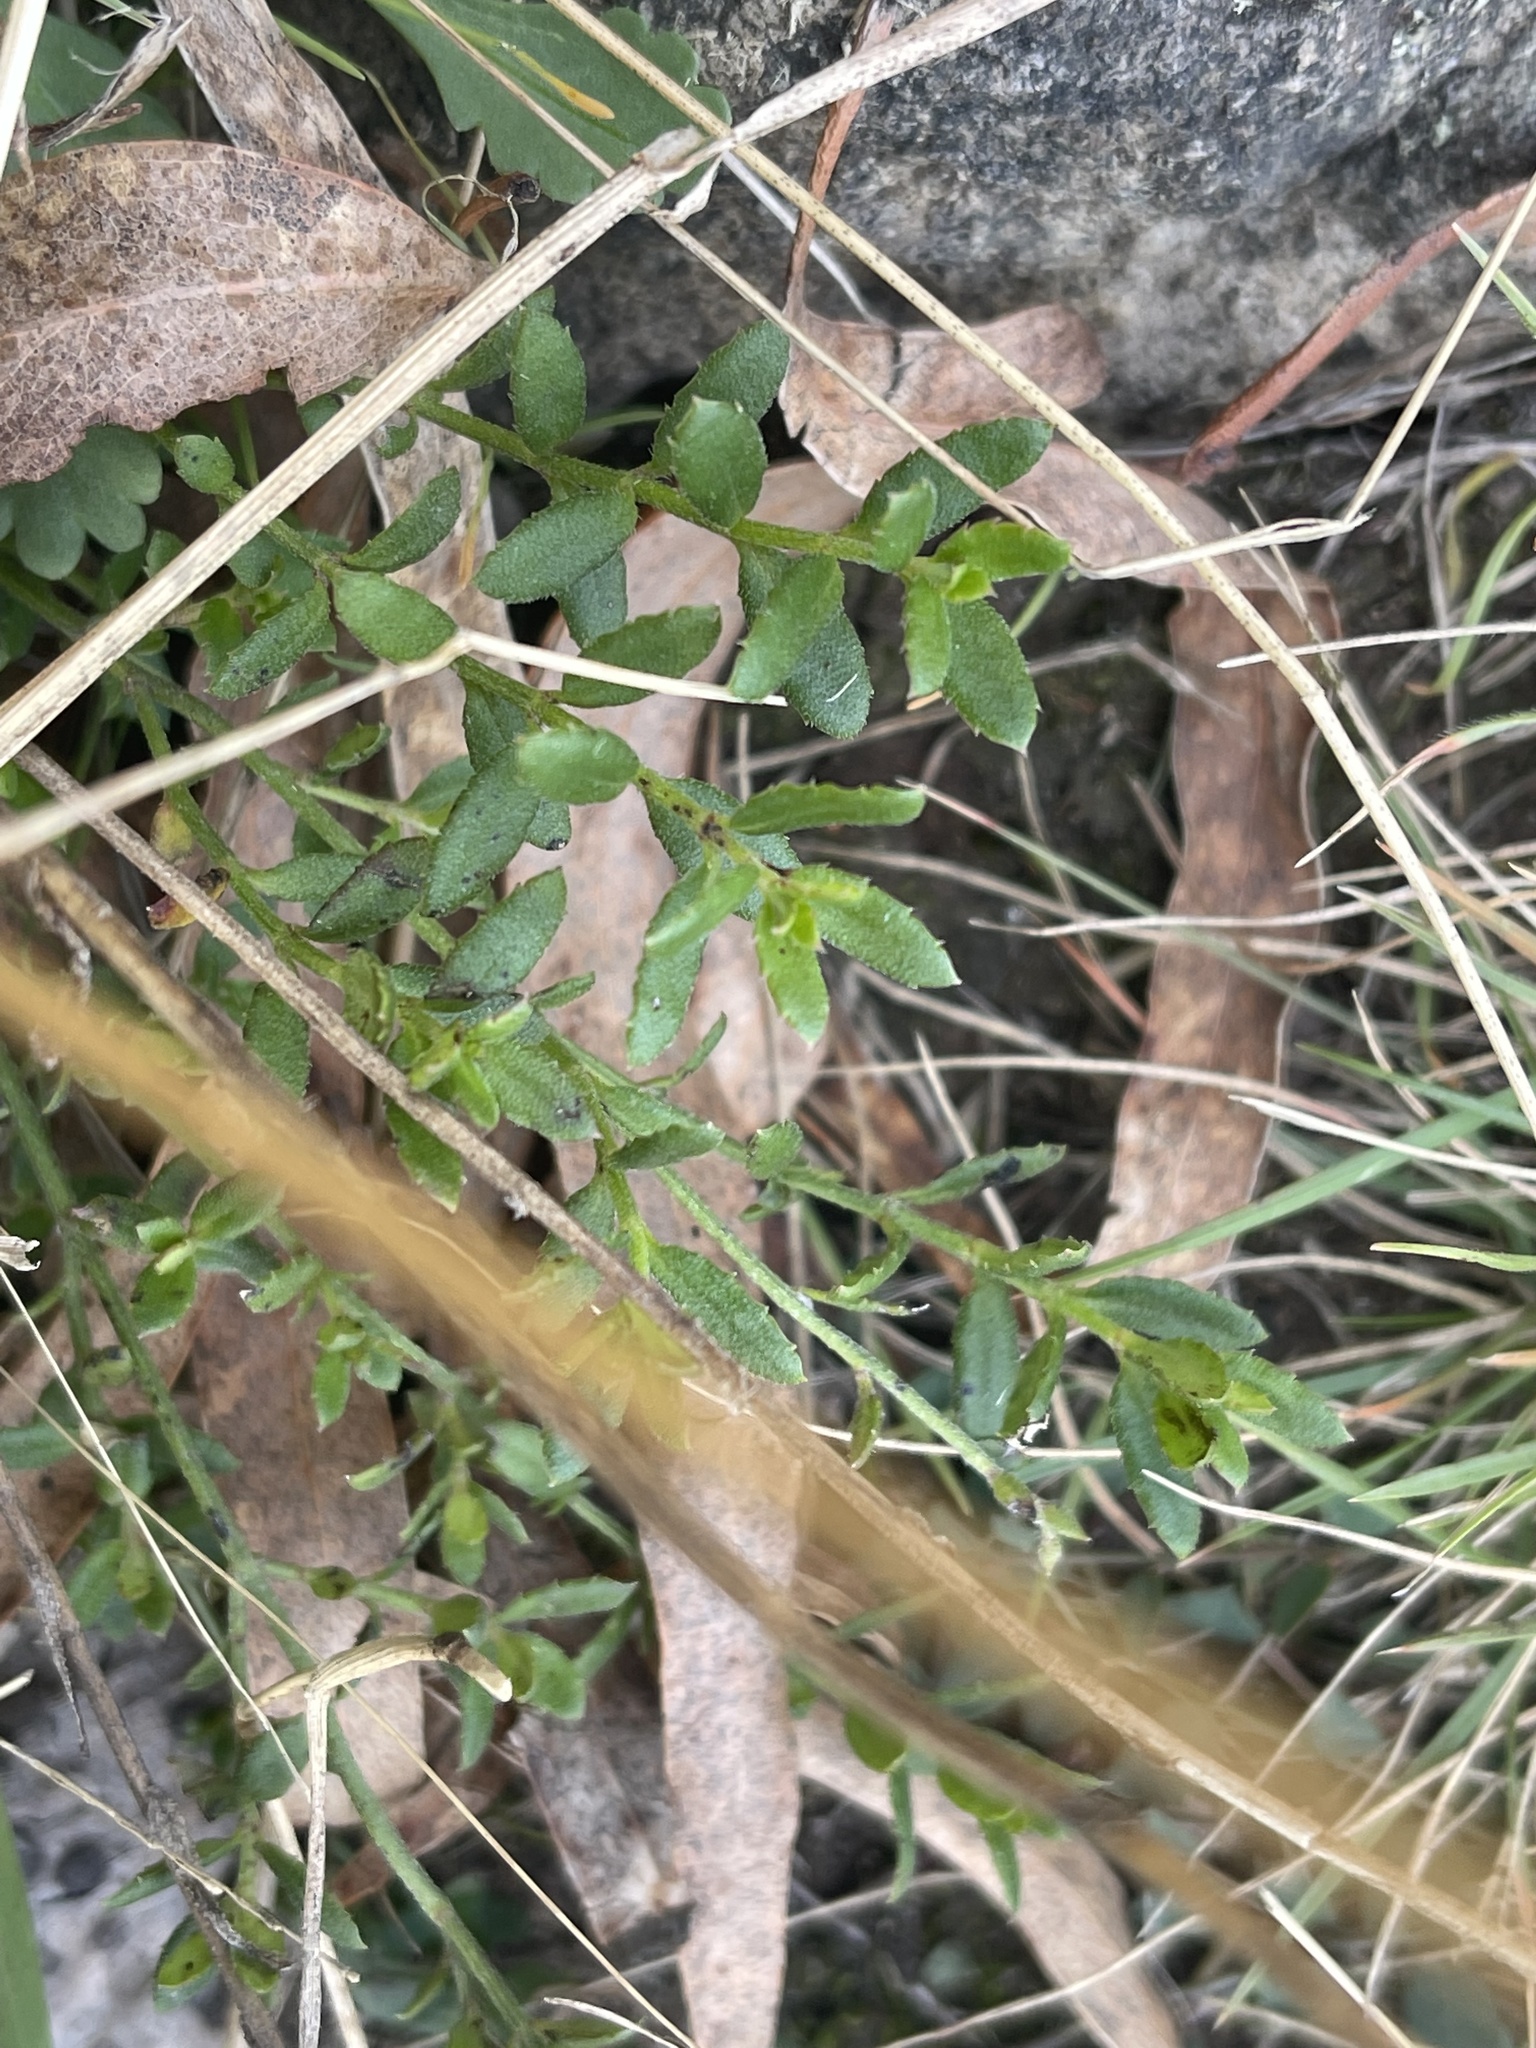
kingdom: Plantae
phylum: Tracheophyta
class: Magnoliopsida
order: Saxifragales
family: Haloragaceae
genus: Gonocarpus
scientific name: Gonocarpus tetragynus
